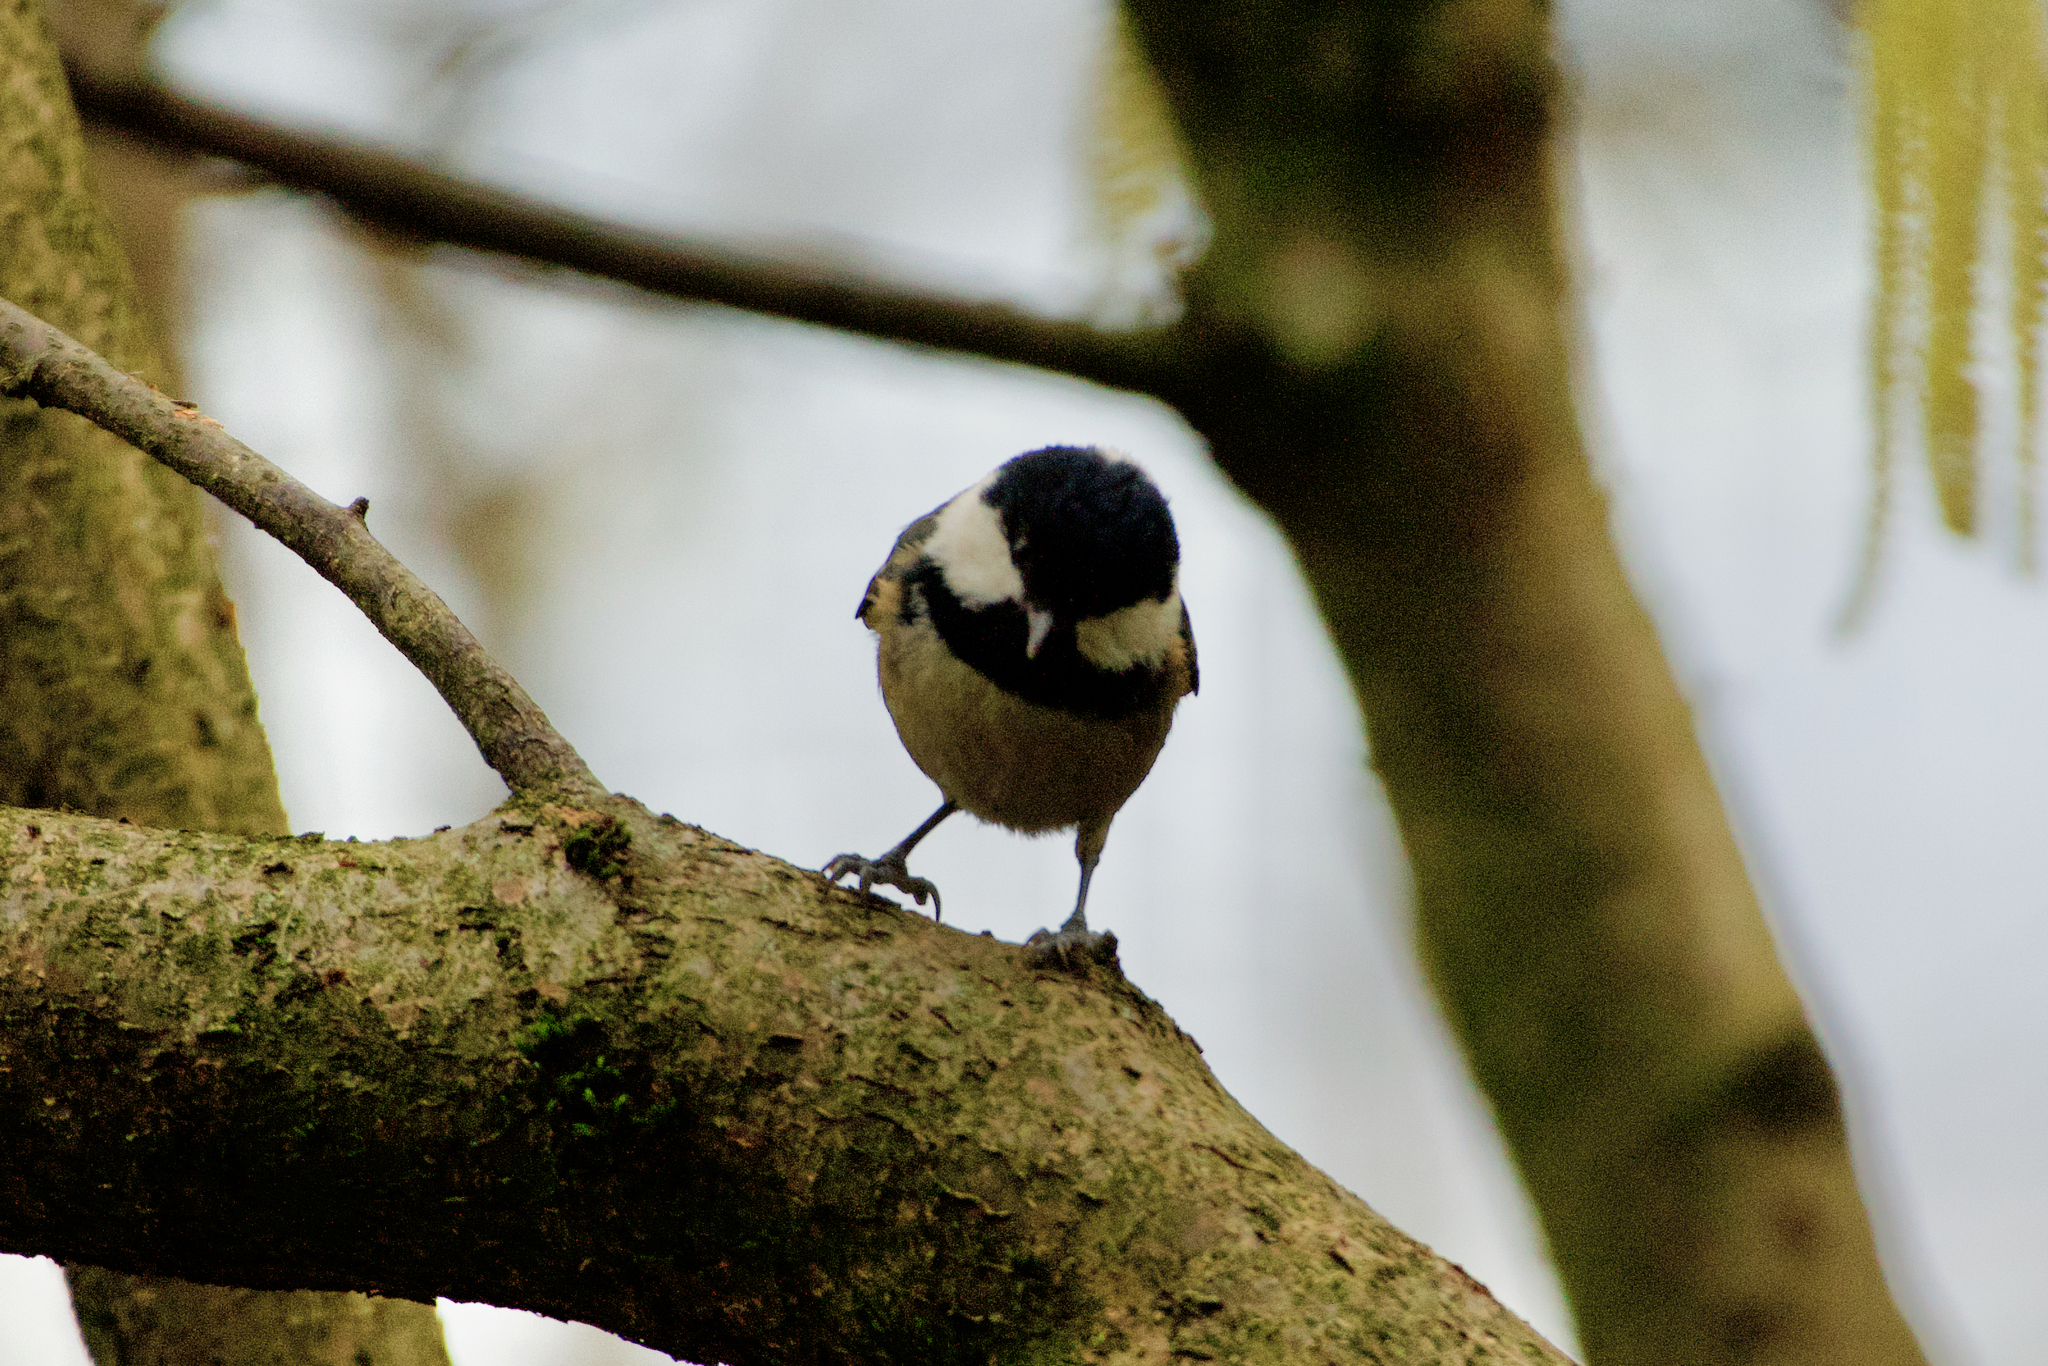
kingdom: Animalia
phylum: Chordata
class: Aves
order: Passeriformes
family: Paridae
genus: Periparus
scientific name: Periparus ater
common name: Coal tit
